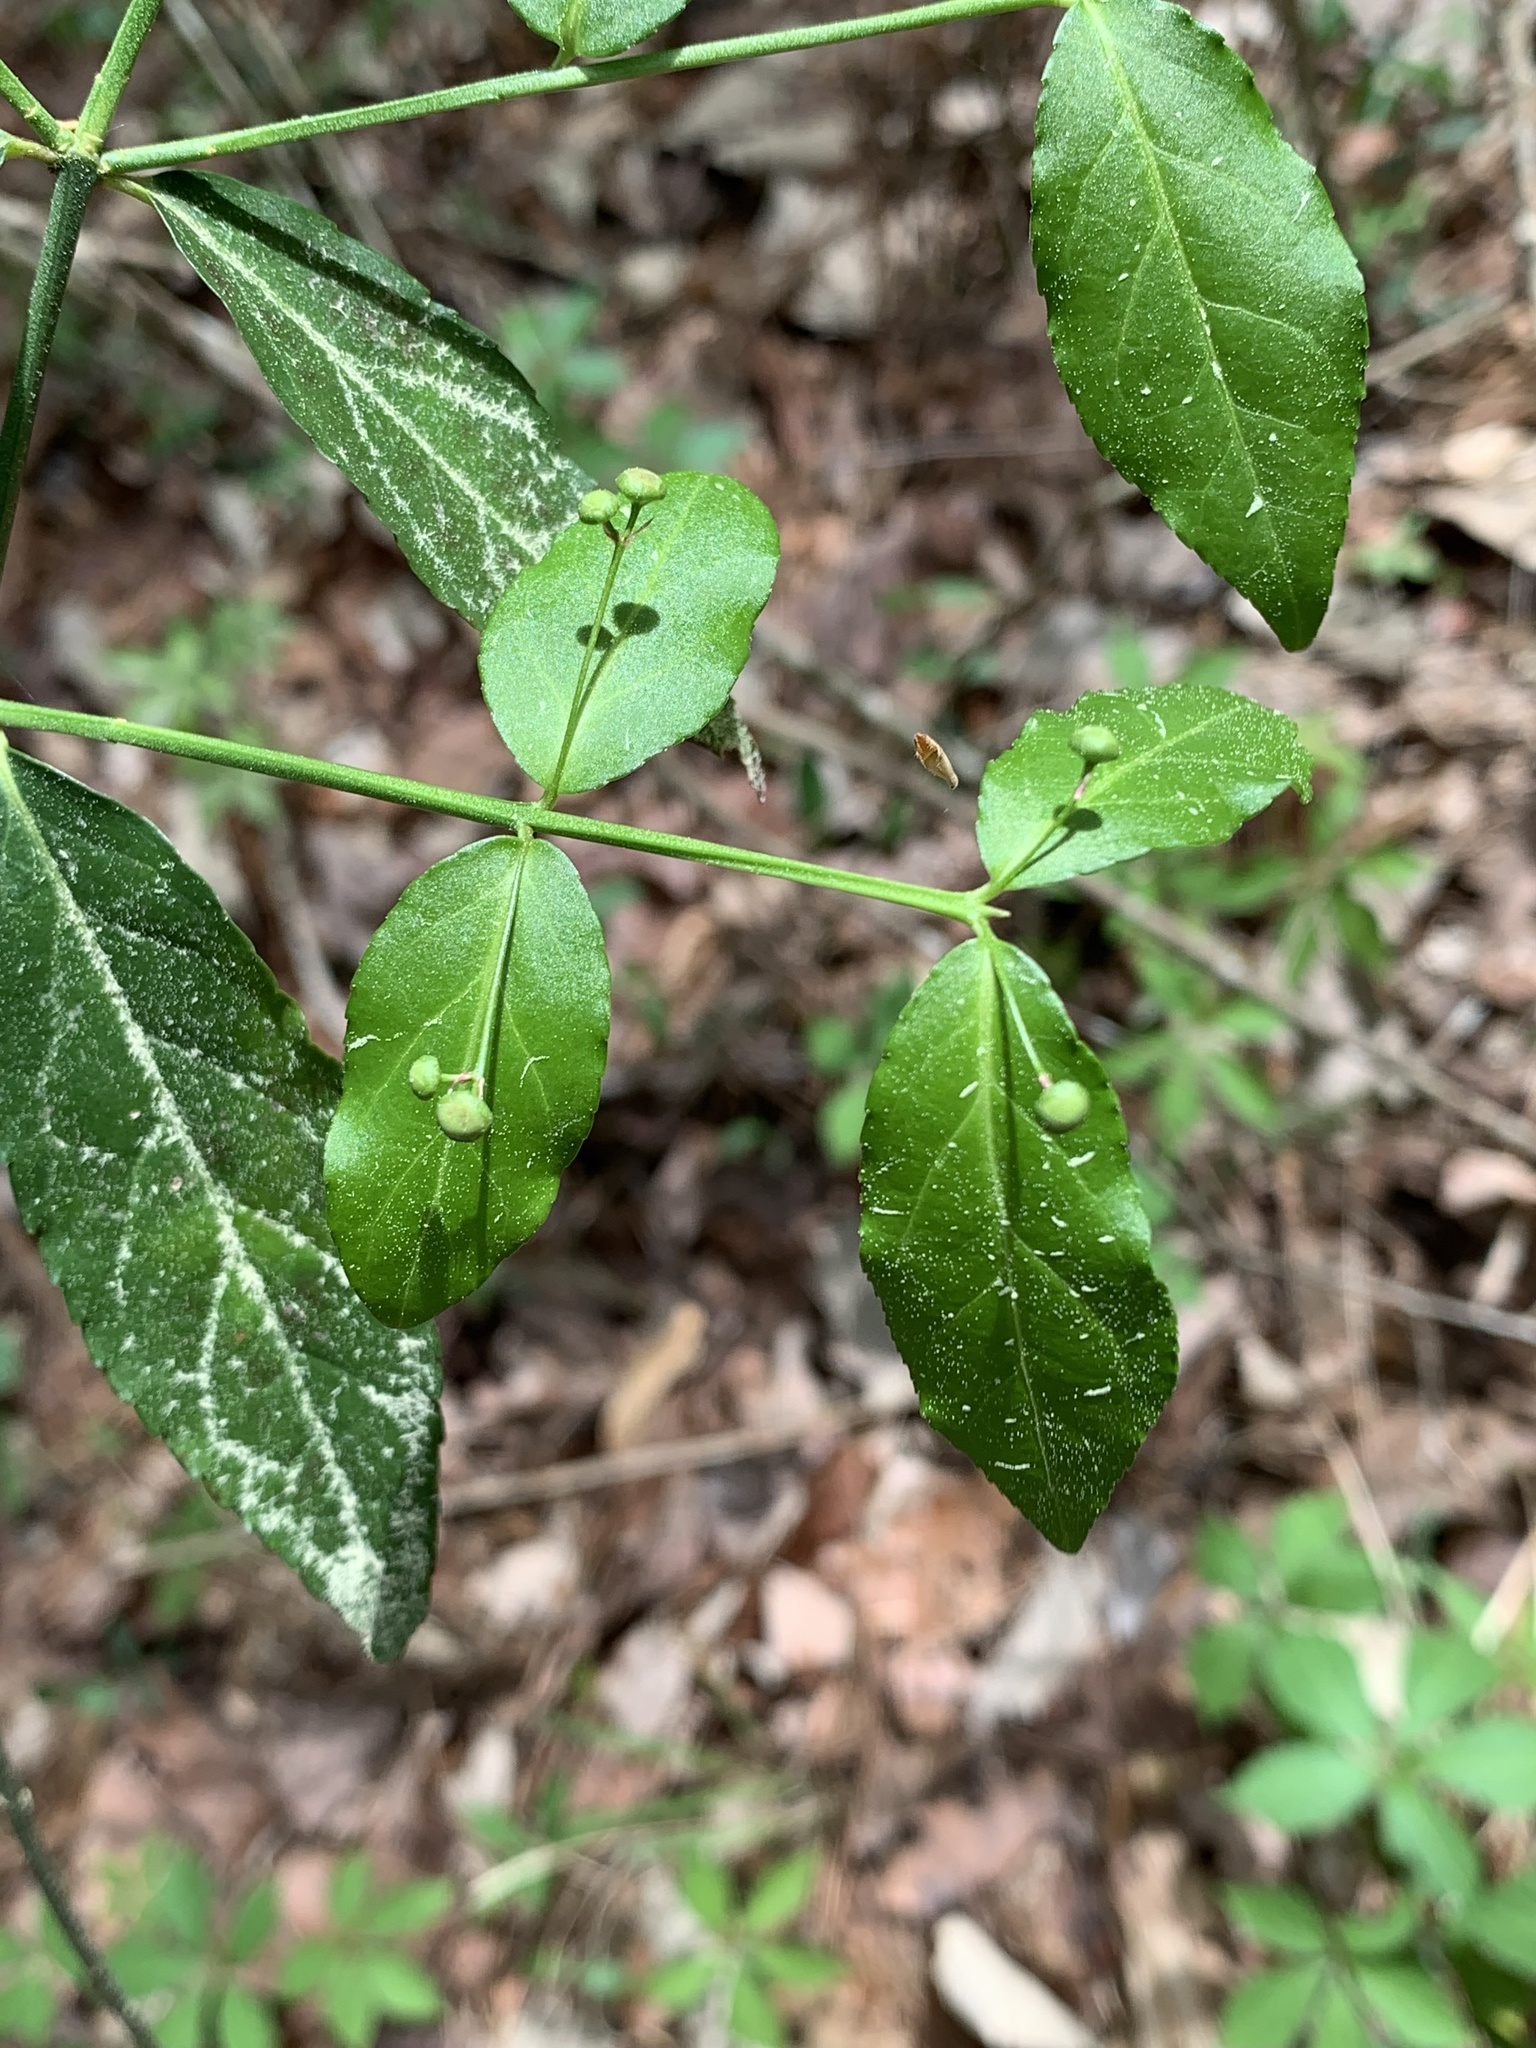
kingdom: Plantae
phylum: Tracheophyta
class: Magnoliopsida
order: Celastrales
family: Celastraceae
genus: Euonymus
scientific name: Euonymus americanus
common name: Bursting-heart
